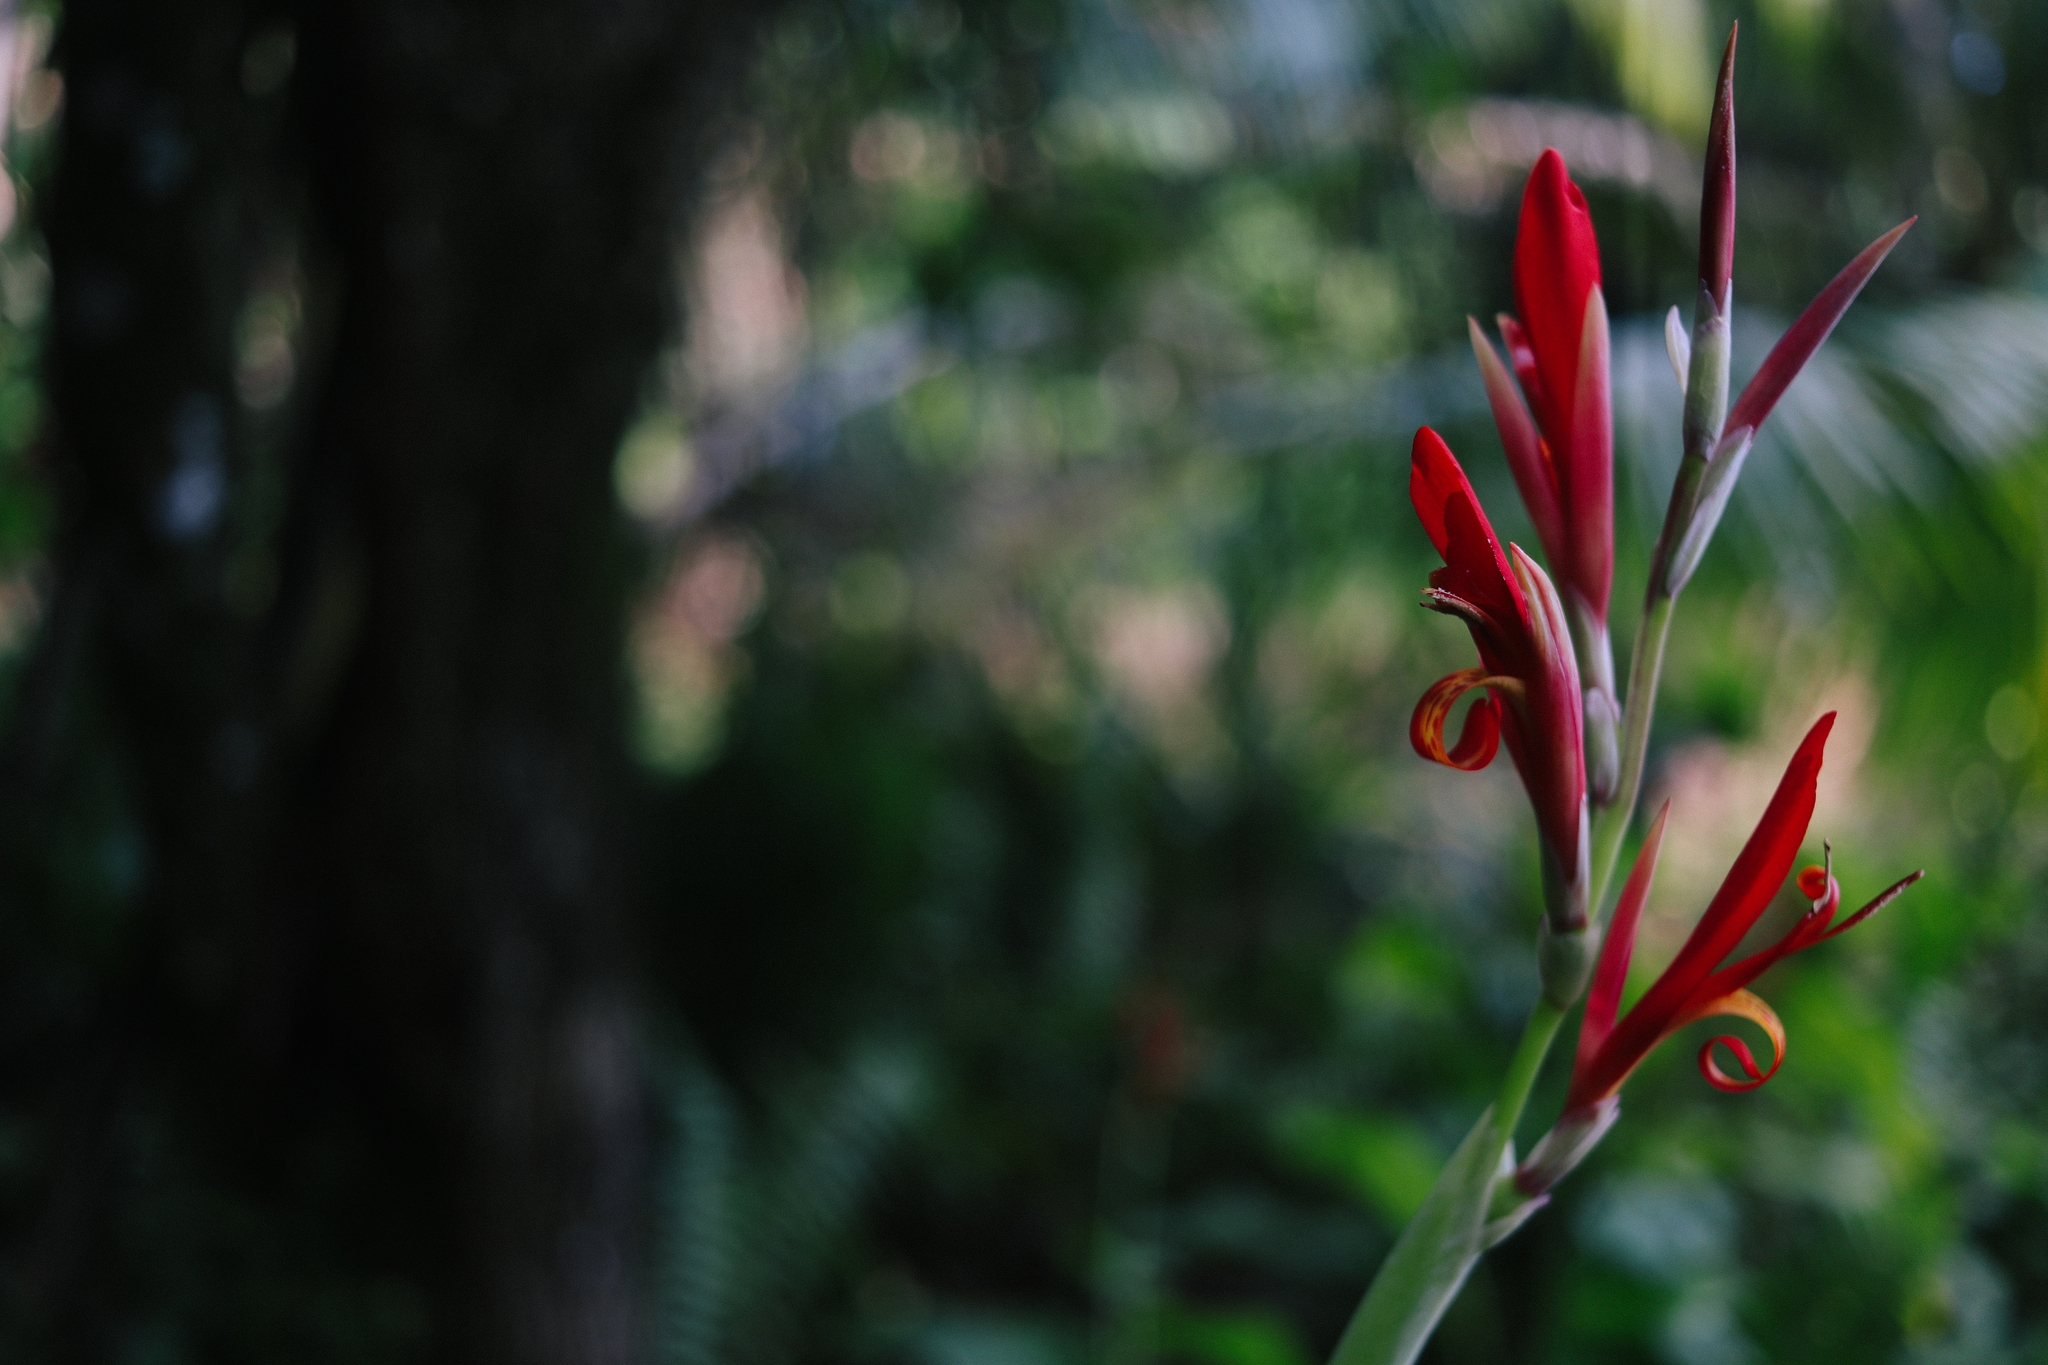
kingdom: Plantae
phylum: Tracheophyta
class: Liliopsida
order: Zingiberales
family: Cannaceae
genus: Canna
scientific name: Canna indica
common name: Indian shot
